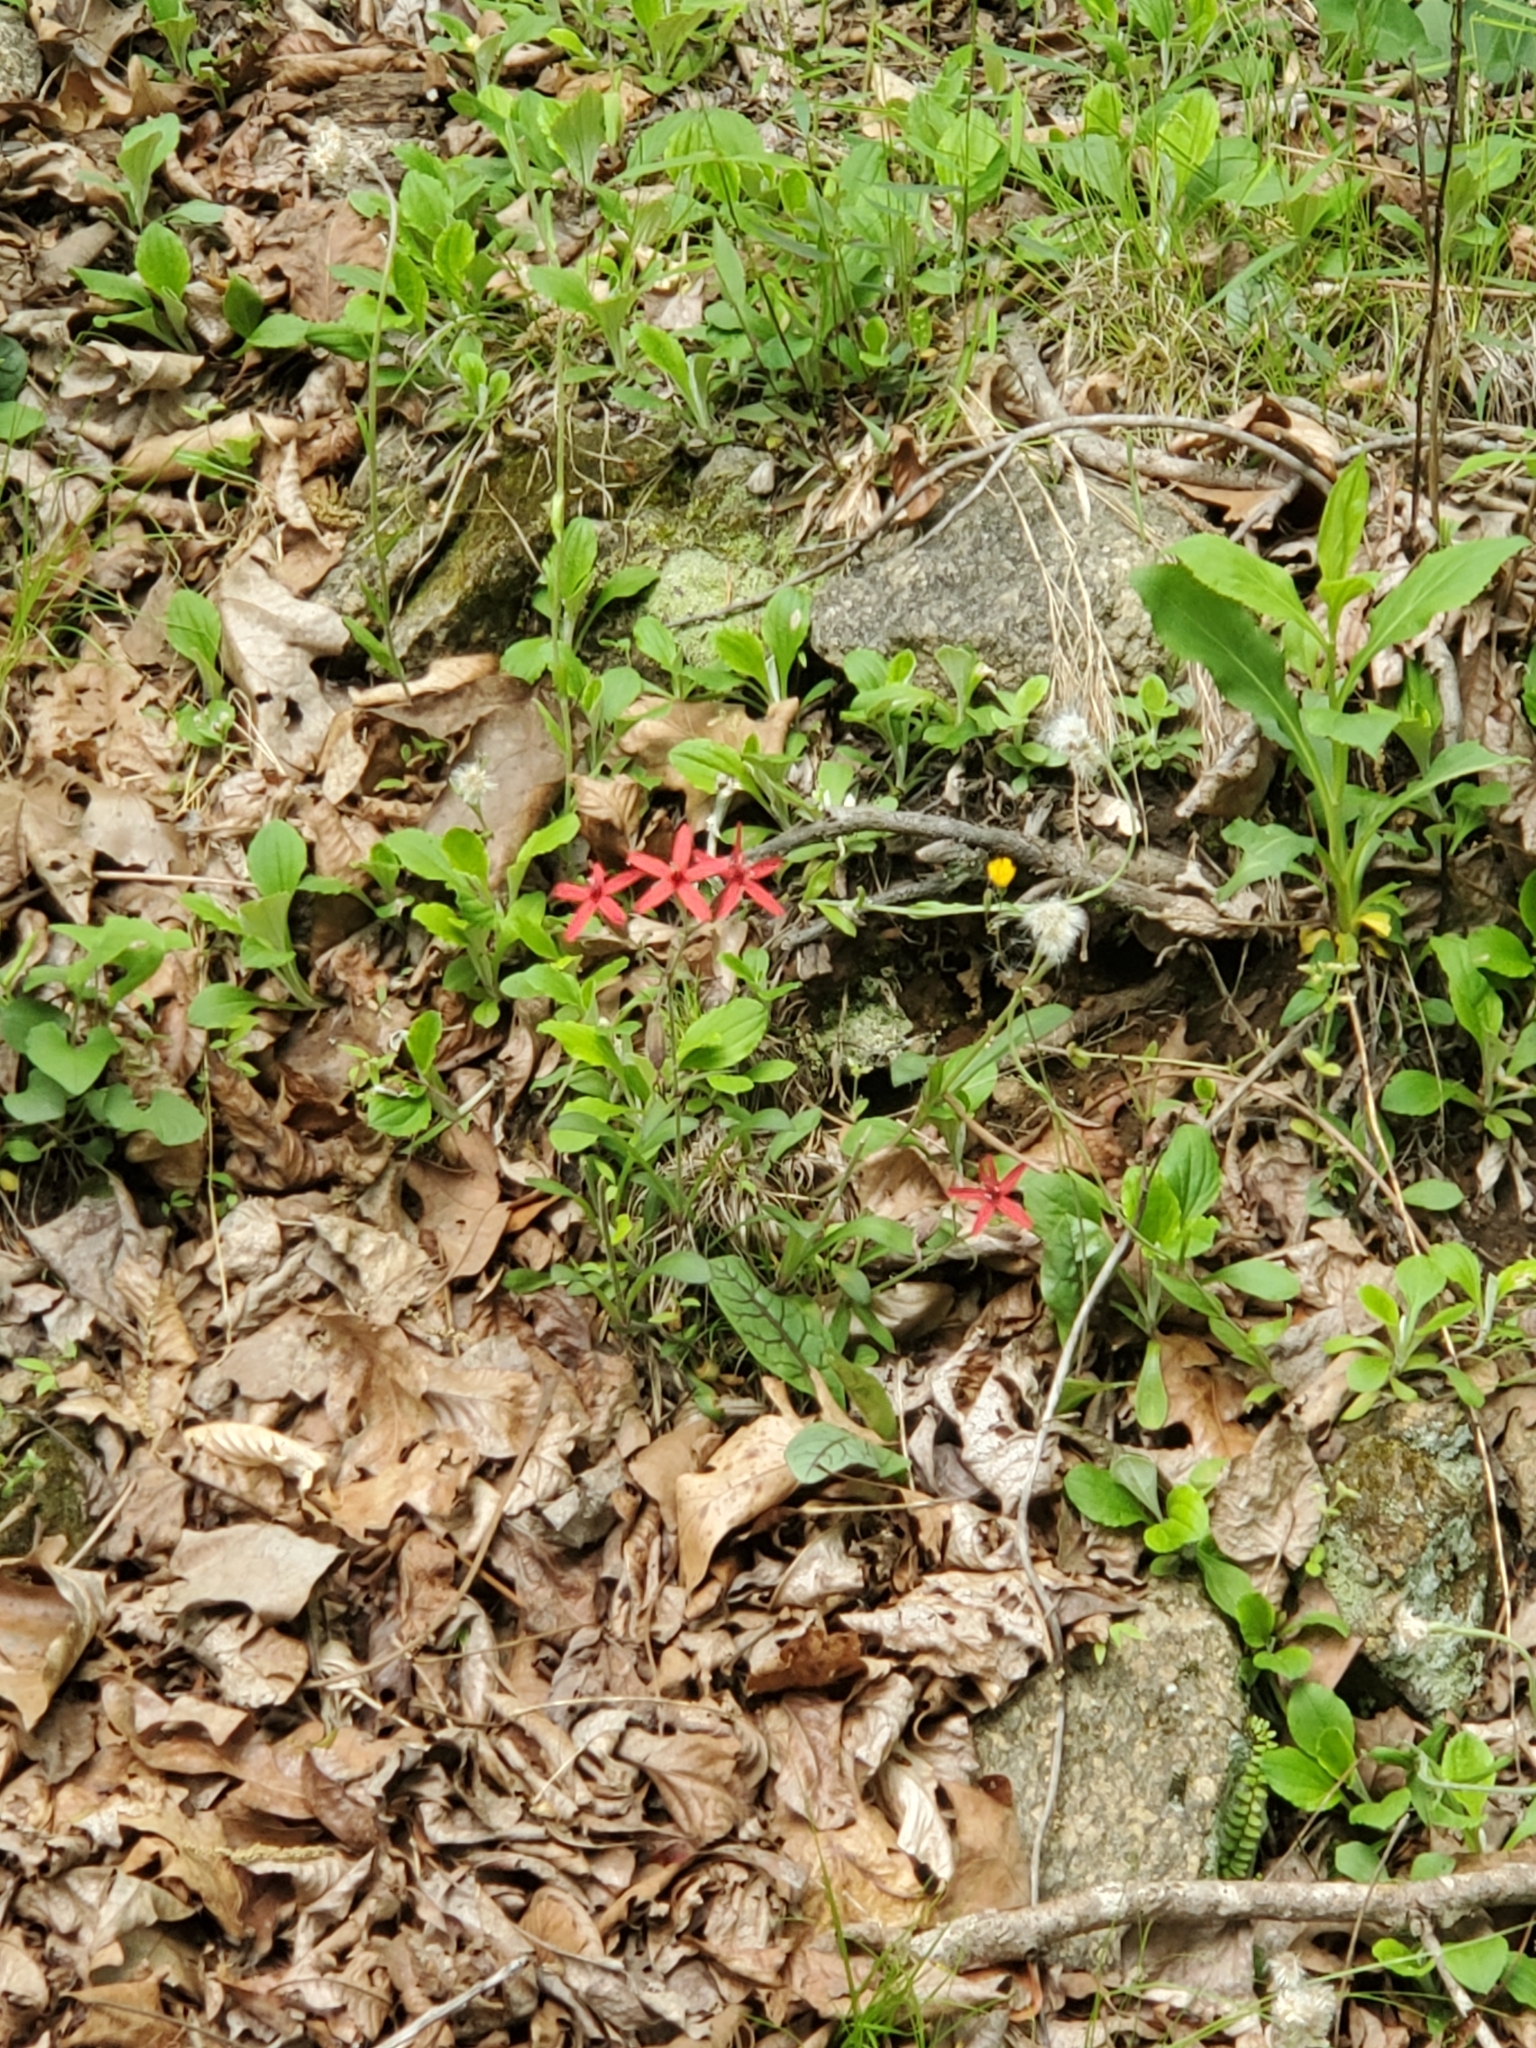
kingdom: Plantae
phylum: Tracheophyta
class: Magnoliopsida
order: Caryophyllales
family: Caryophyllaceae
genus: Silene
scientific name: Silene virginica
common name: Fire-pink
